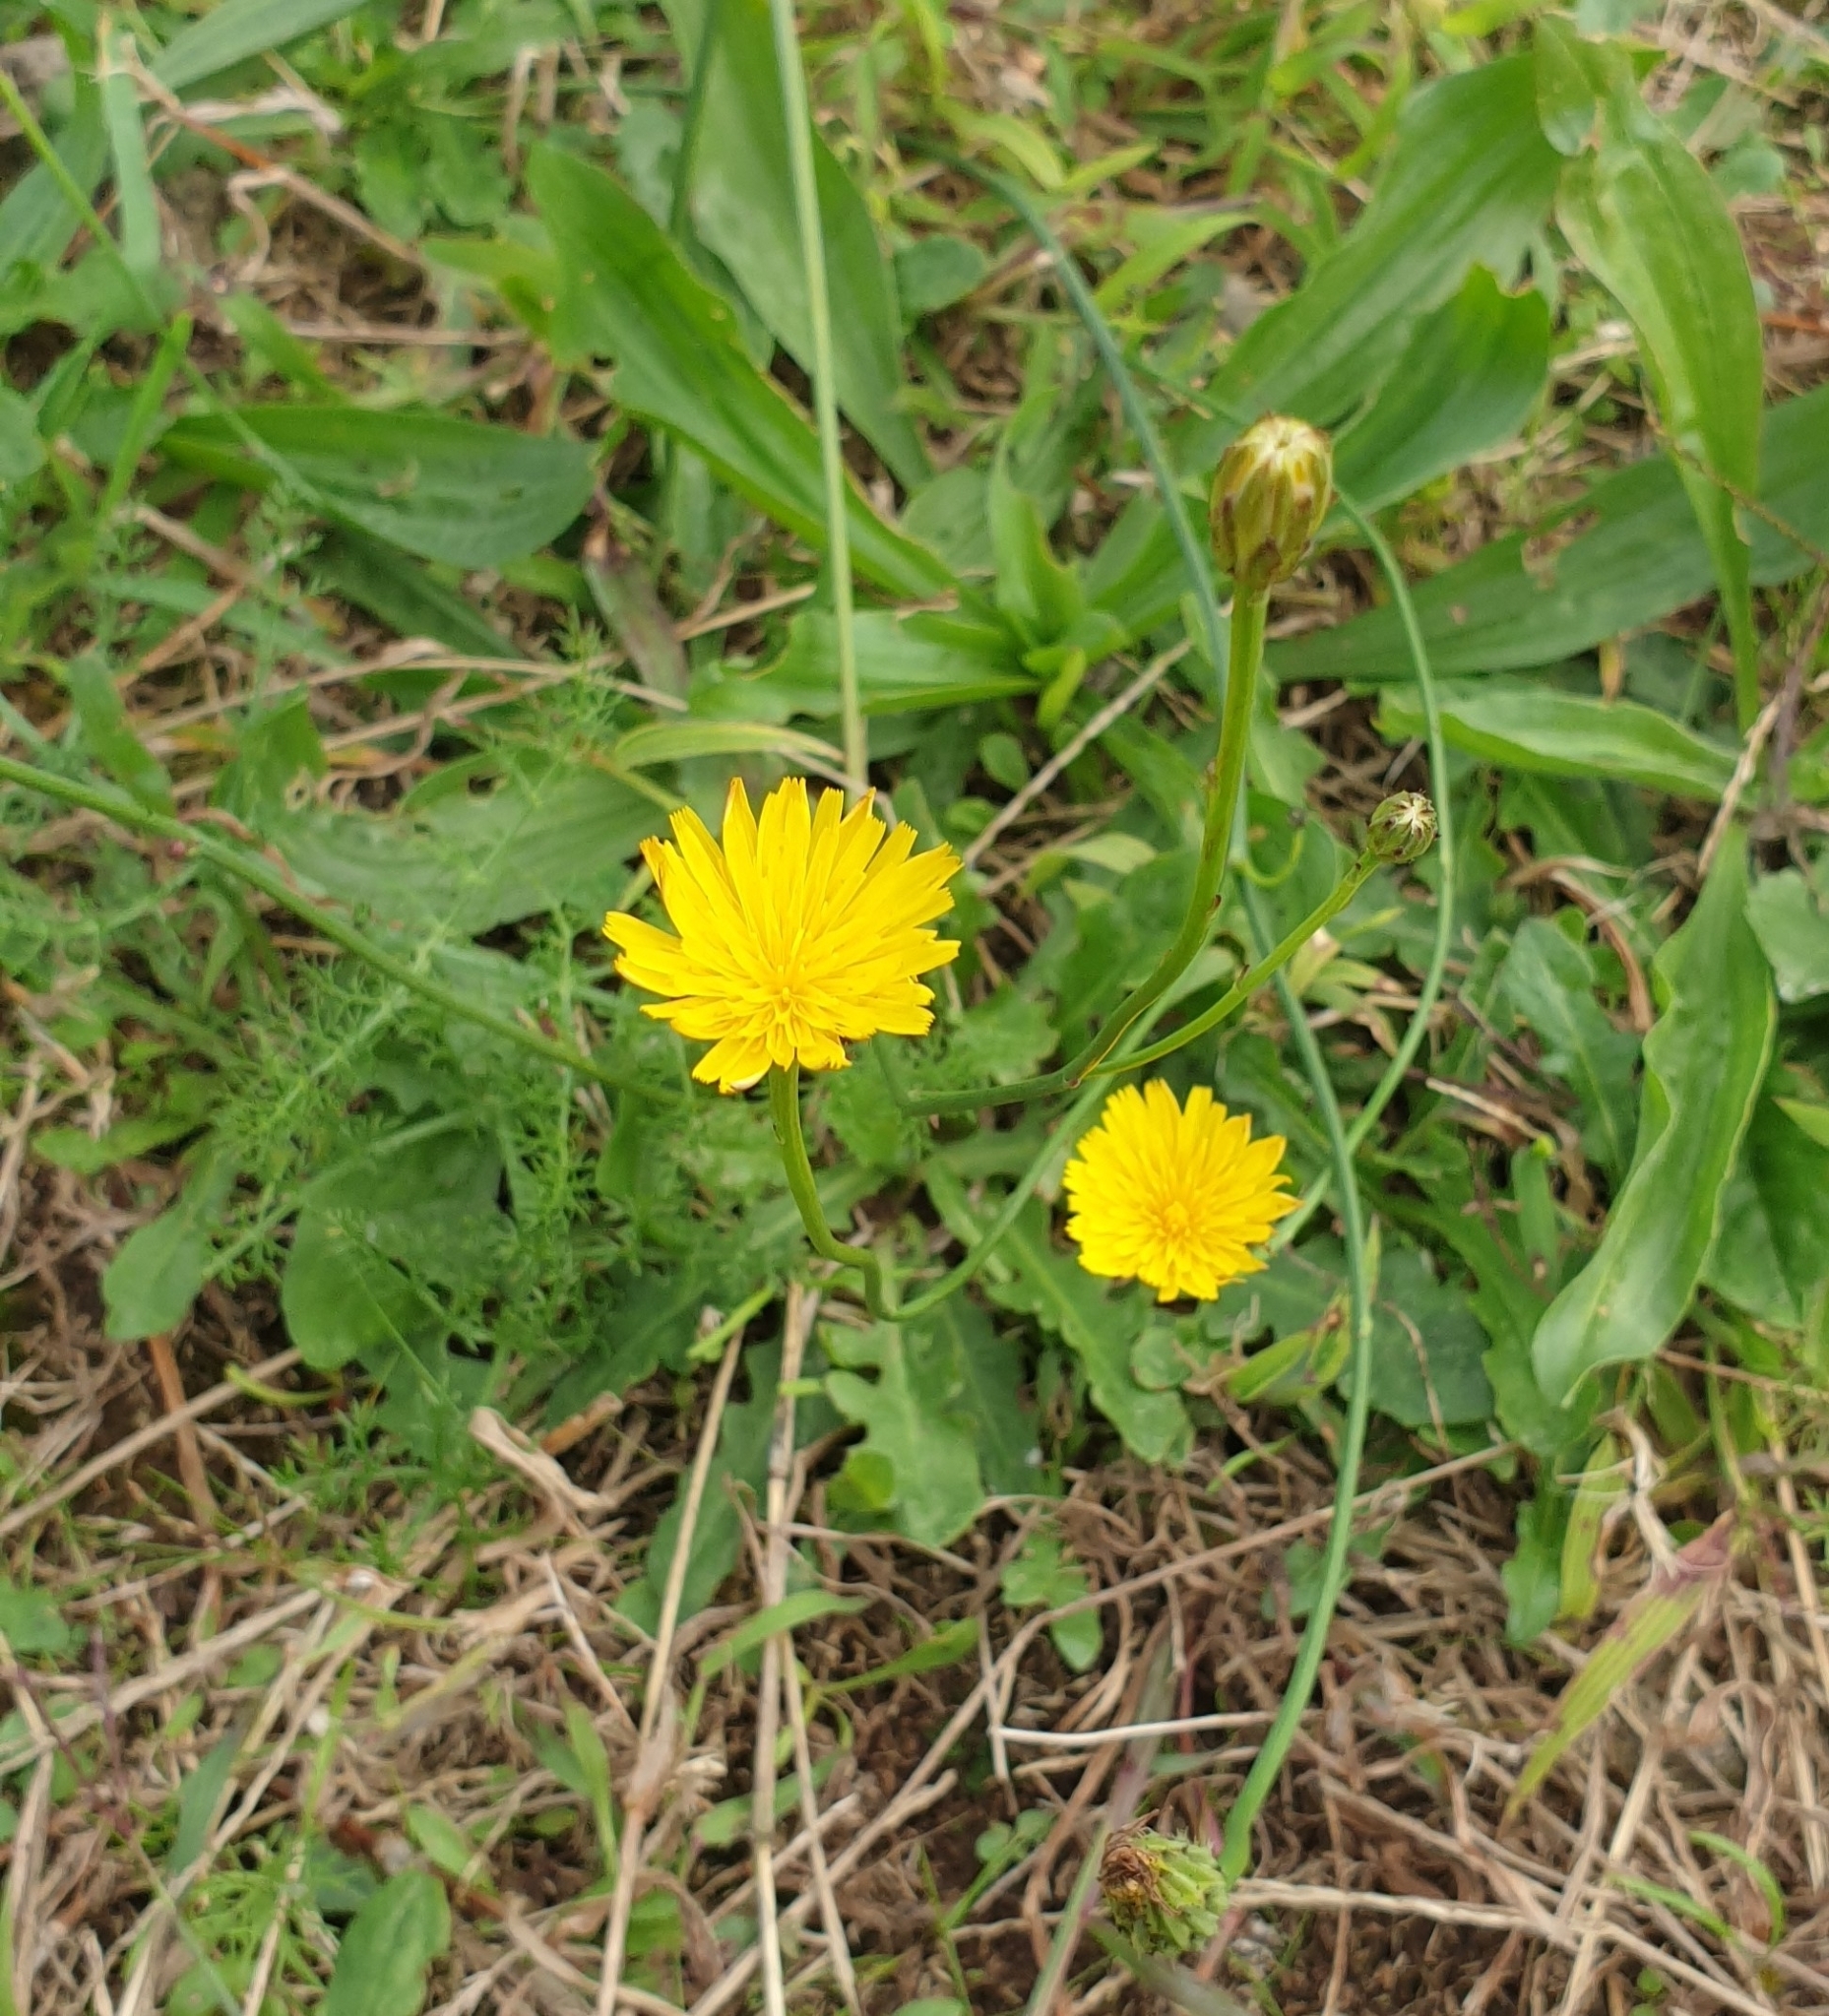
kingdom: Plantae
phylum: Tracheophyta
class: Magnoliopsida
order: Asterales
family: Asteraceae
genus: Hypochaeris
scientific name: Hypochaeris radicata
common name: Flatweed
